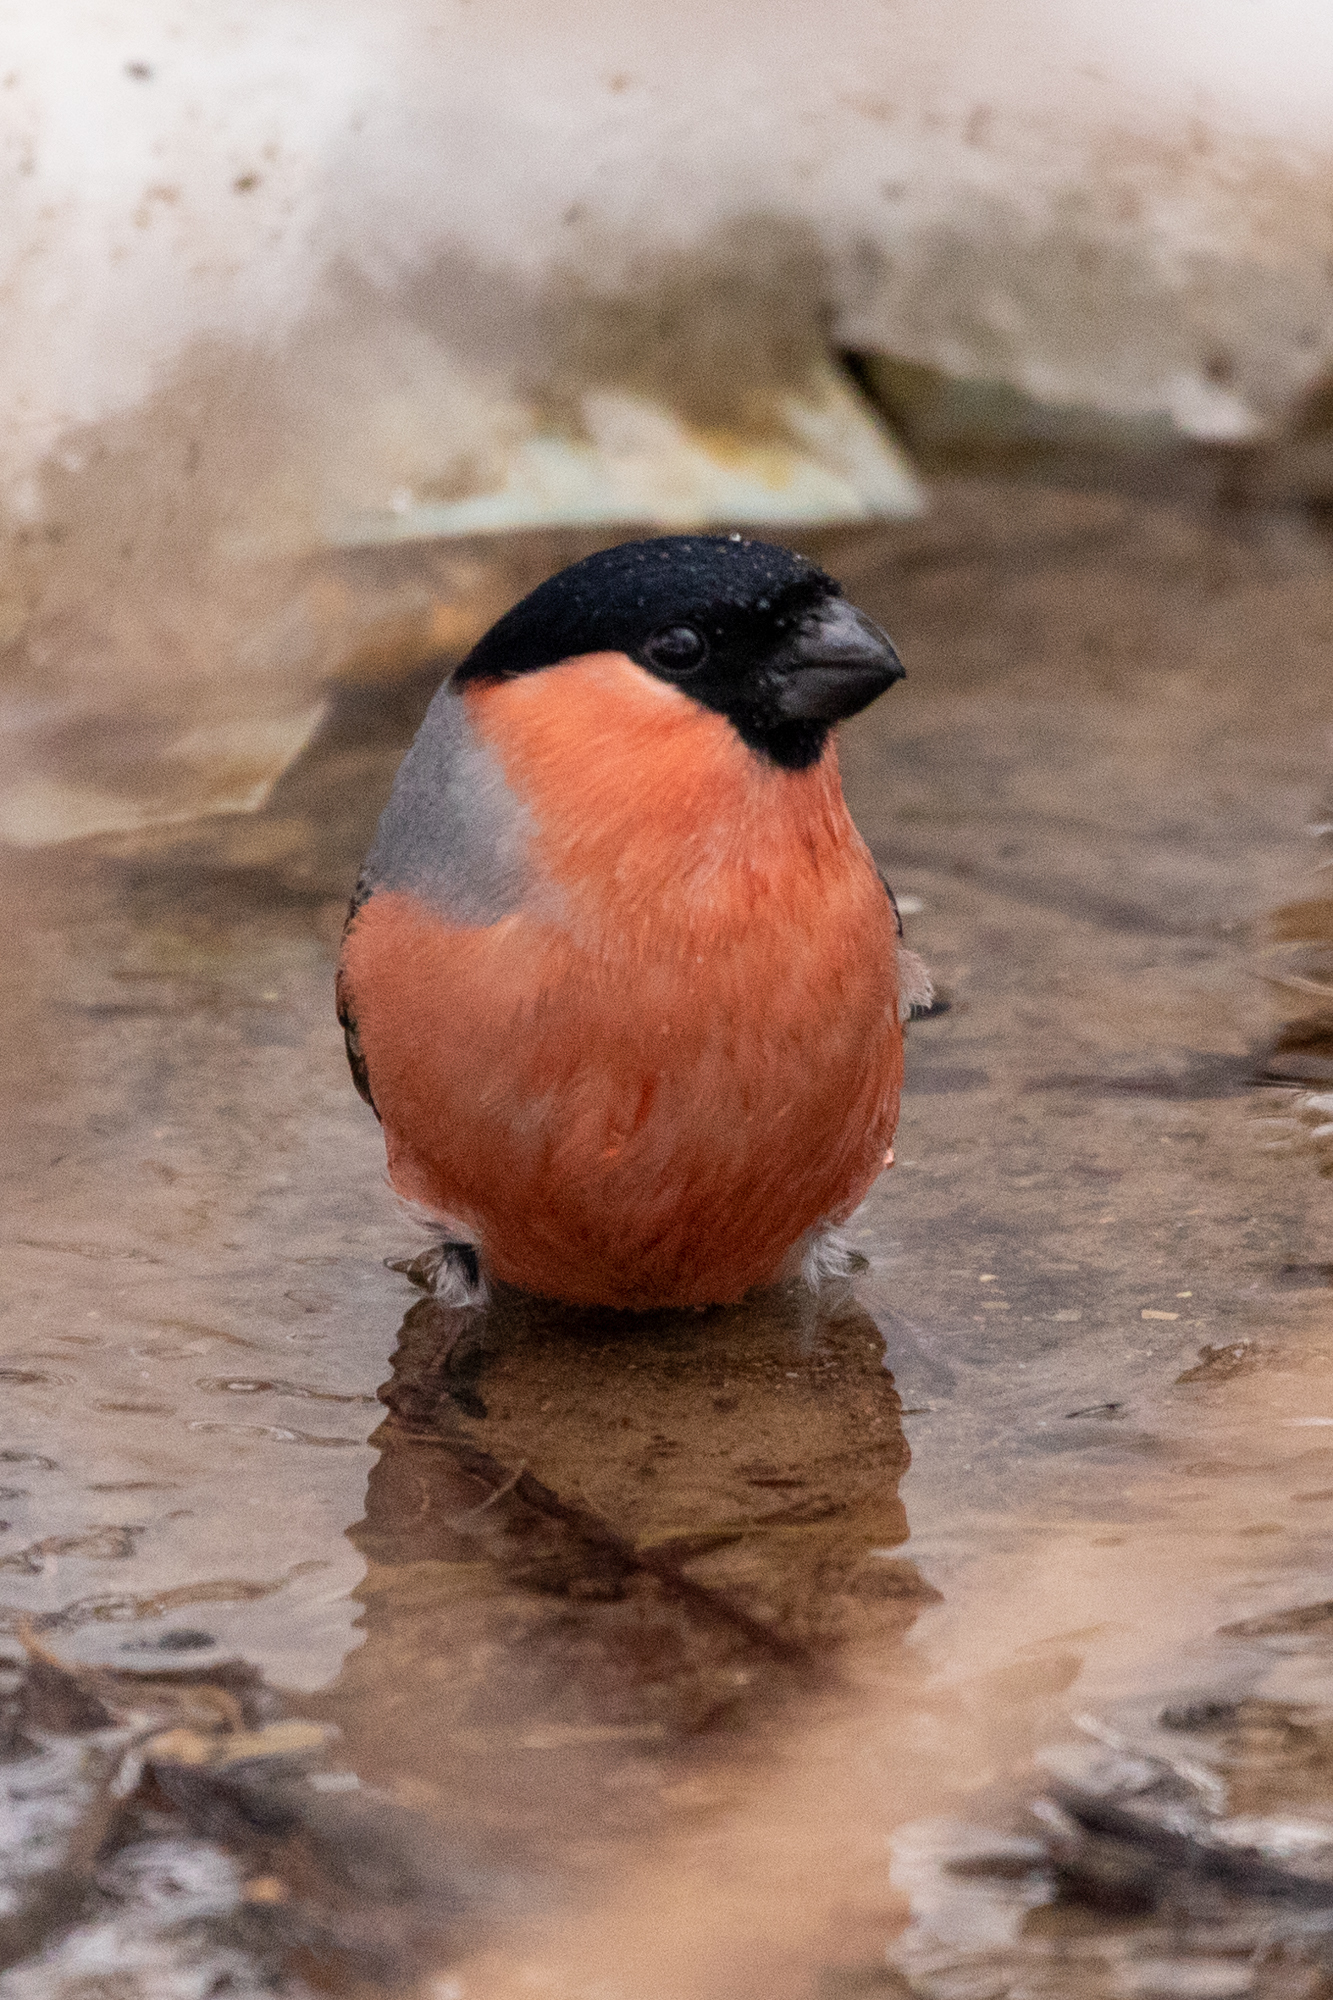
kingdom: Animalia
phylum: Chordata
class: Aves
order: Passeriformes
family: Fringillidae
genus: Pyrrhula
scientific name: Pyrrhula pyrrhula
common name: Eurasian bullfinch
